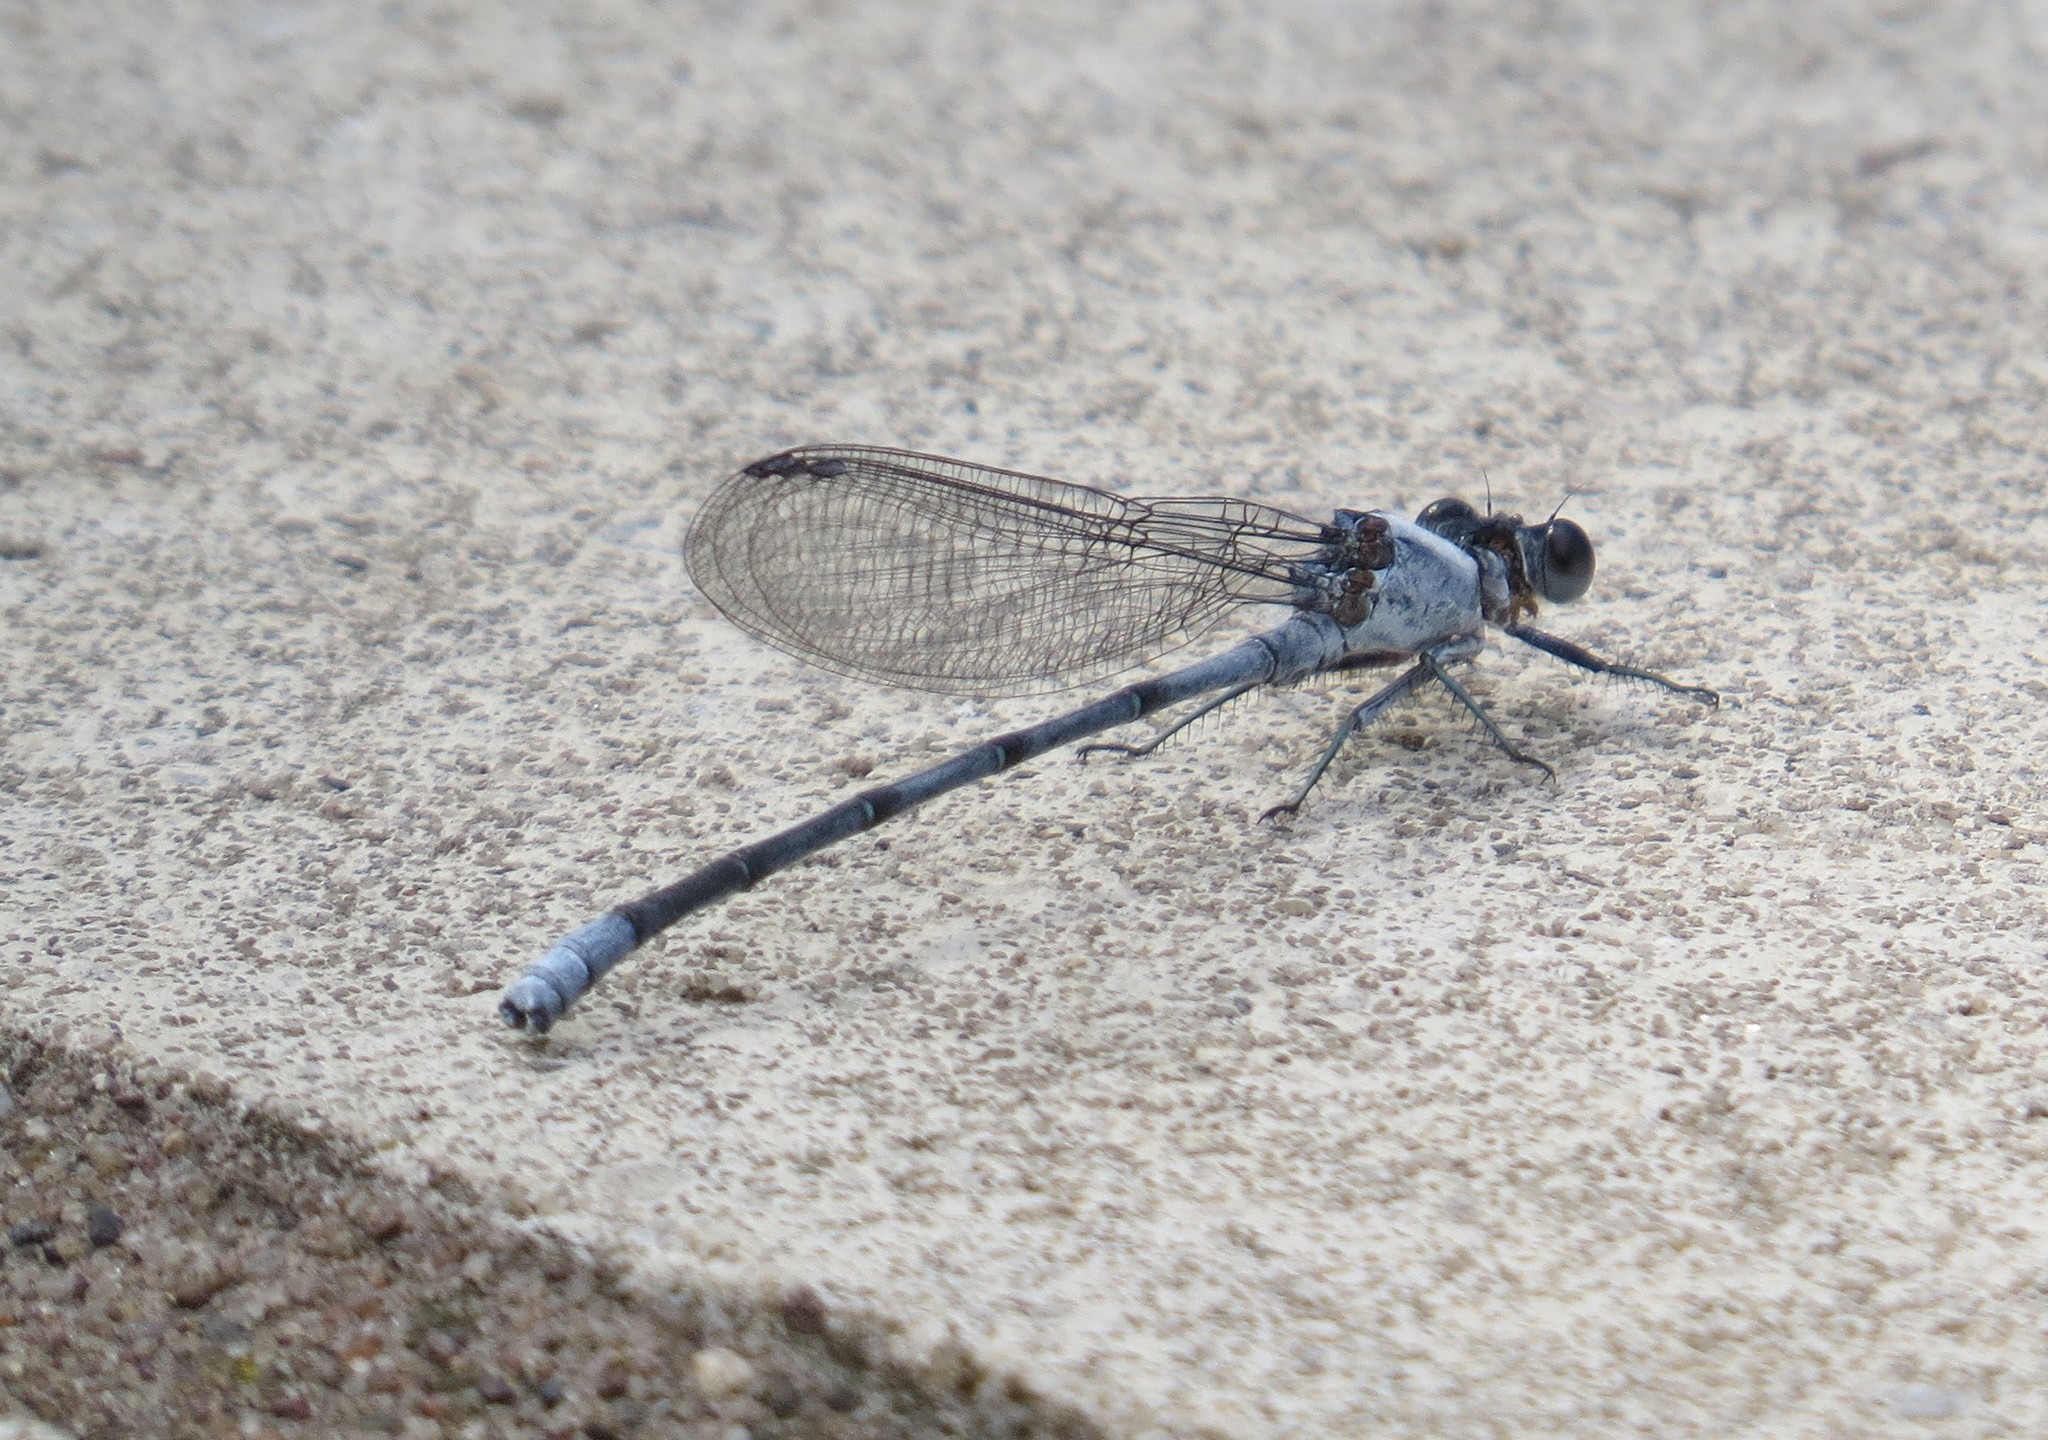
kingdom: Animalia
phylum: Arthropoda
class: Insecta
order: Odonata
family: Coenagrionidae
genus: Argia
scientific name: Argia moesta
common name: Powdered dancer
